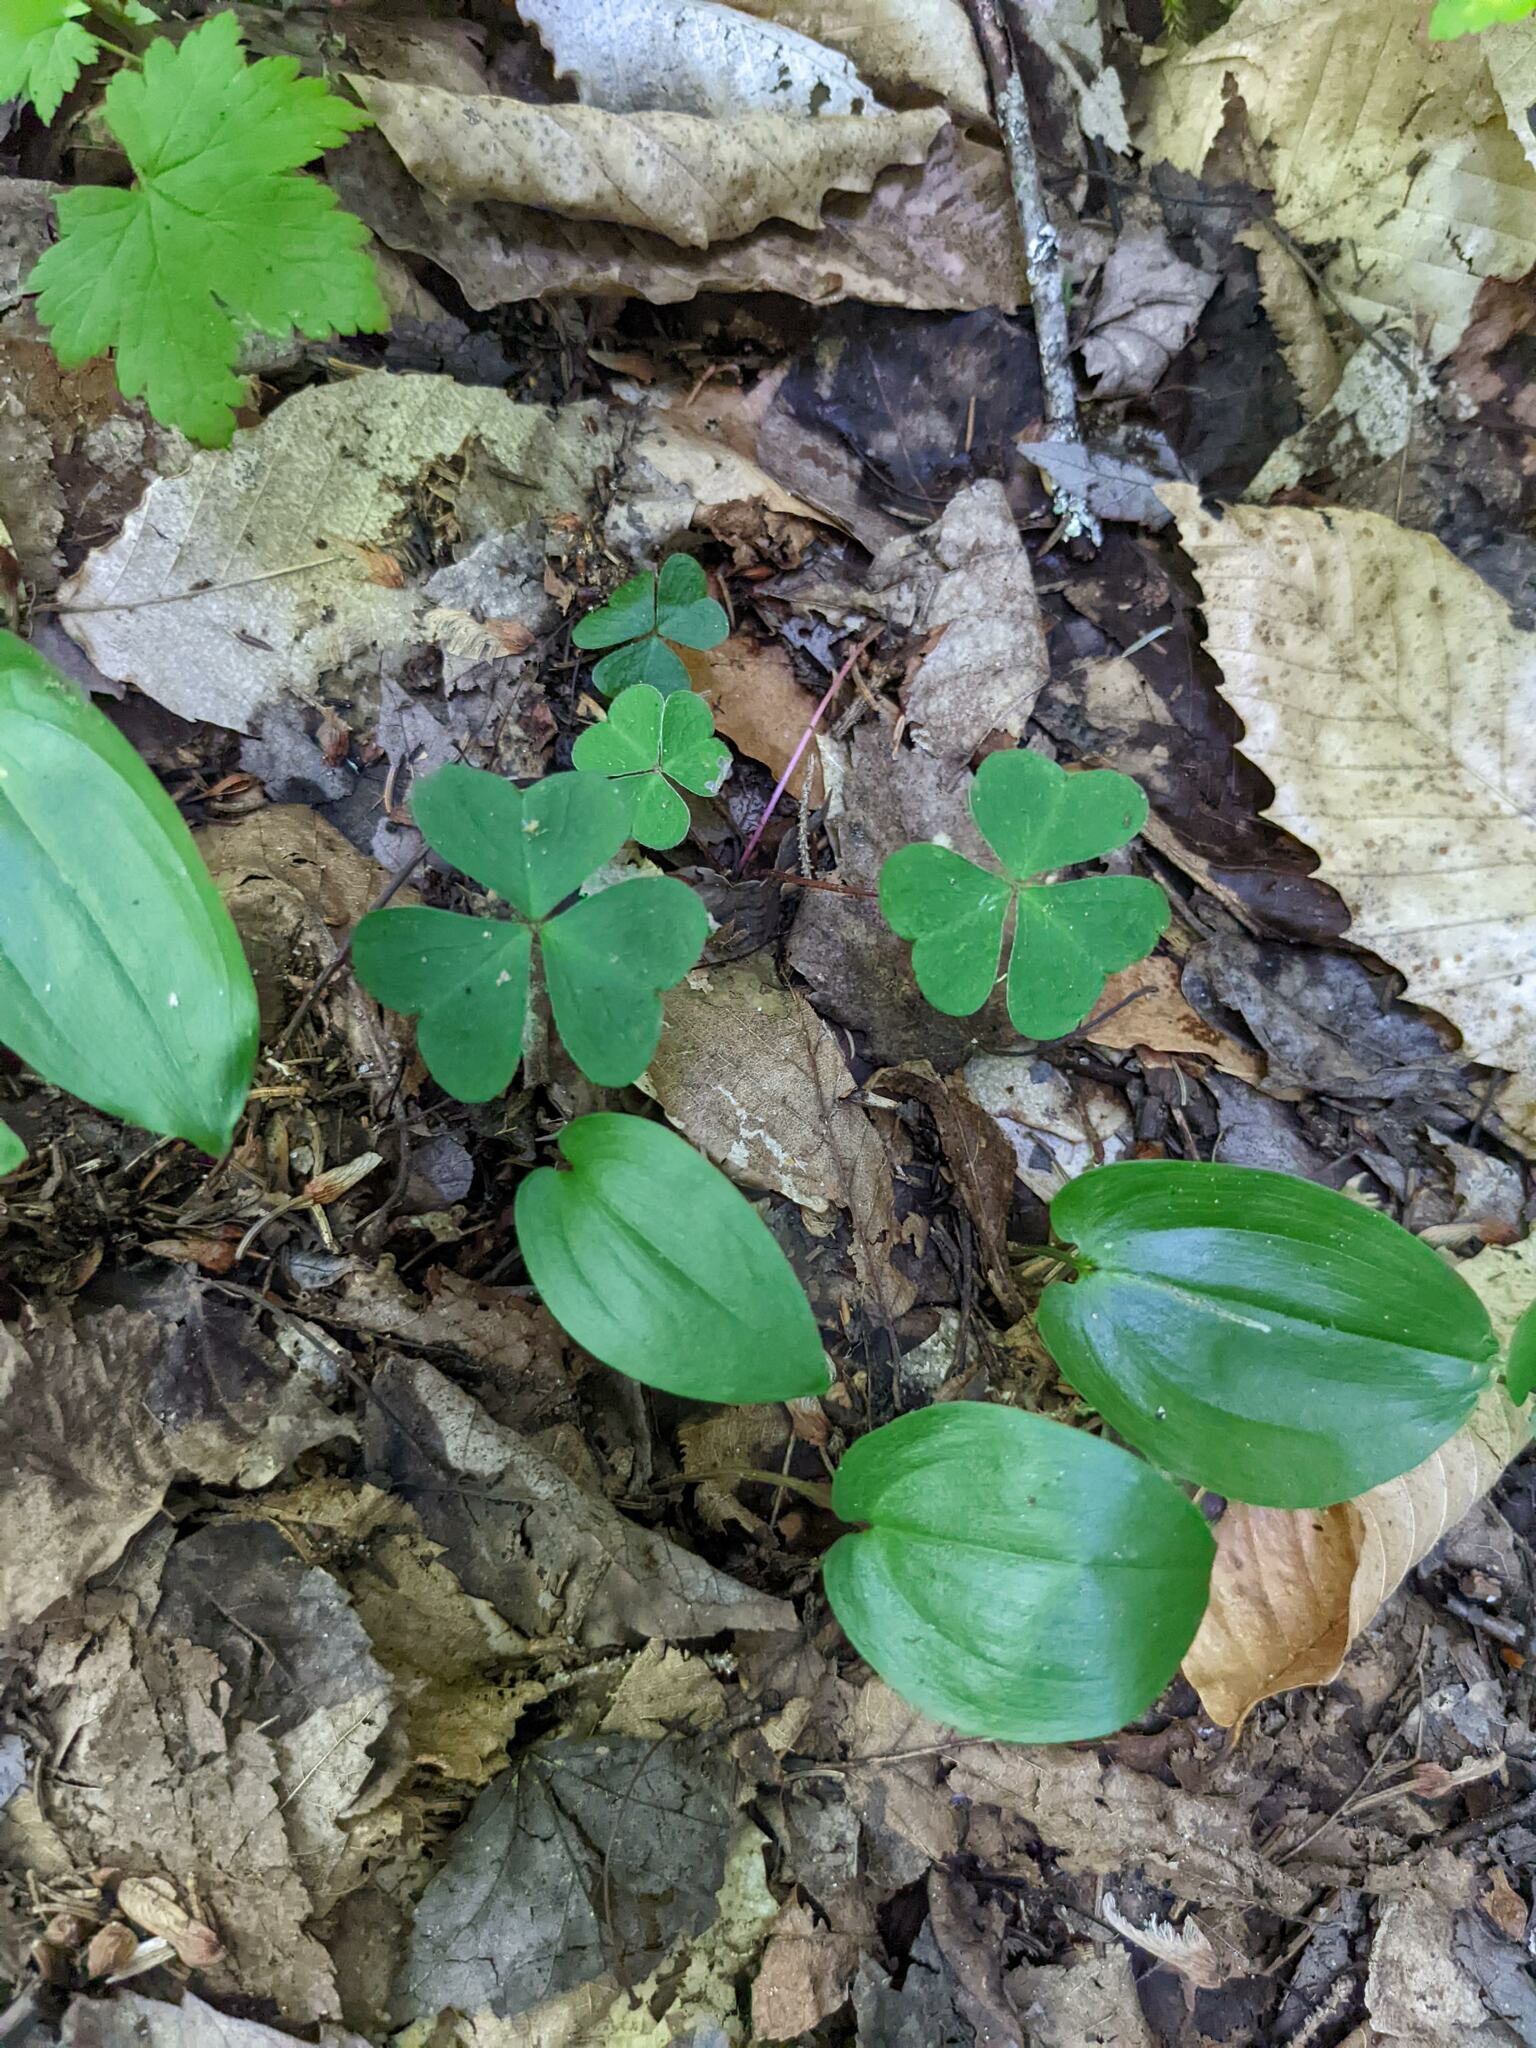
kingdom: Plantae
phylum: Tracheophyta
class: Magnoliopsida
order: Oxalidales
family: Oxalidaceae
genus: Oxalis
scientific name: Oxalis montana
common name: American wood-sorrel
